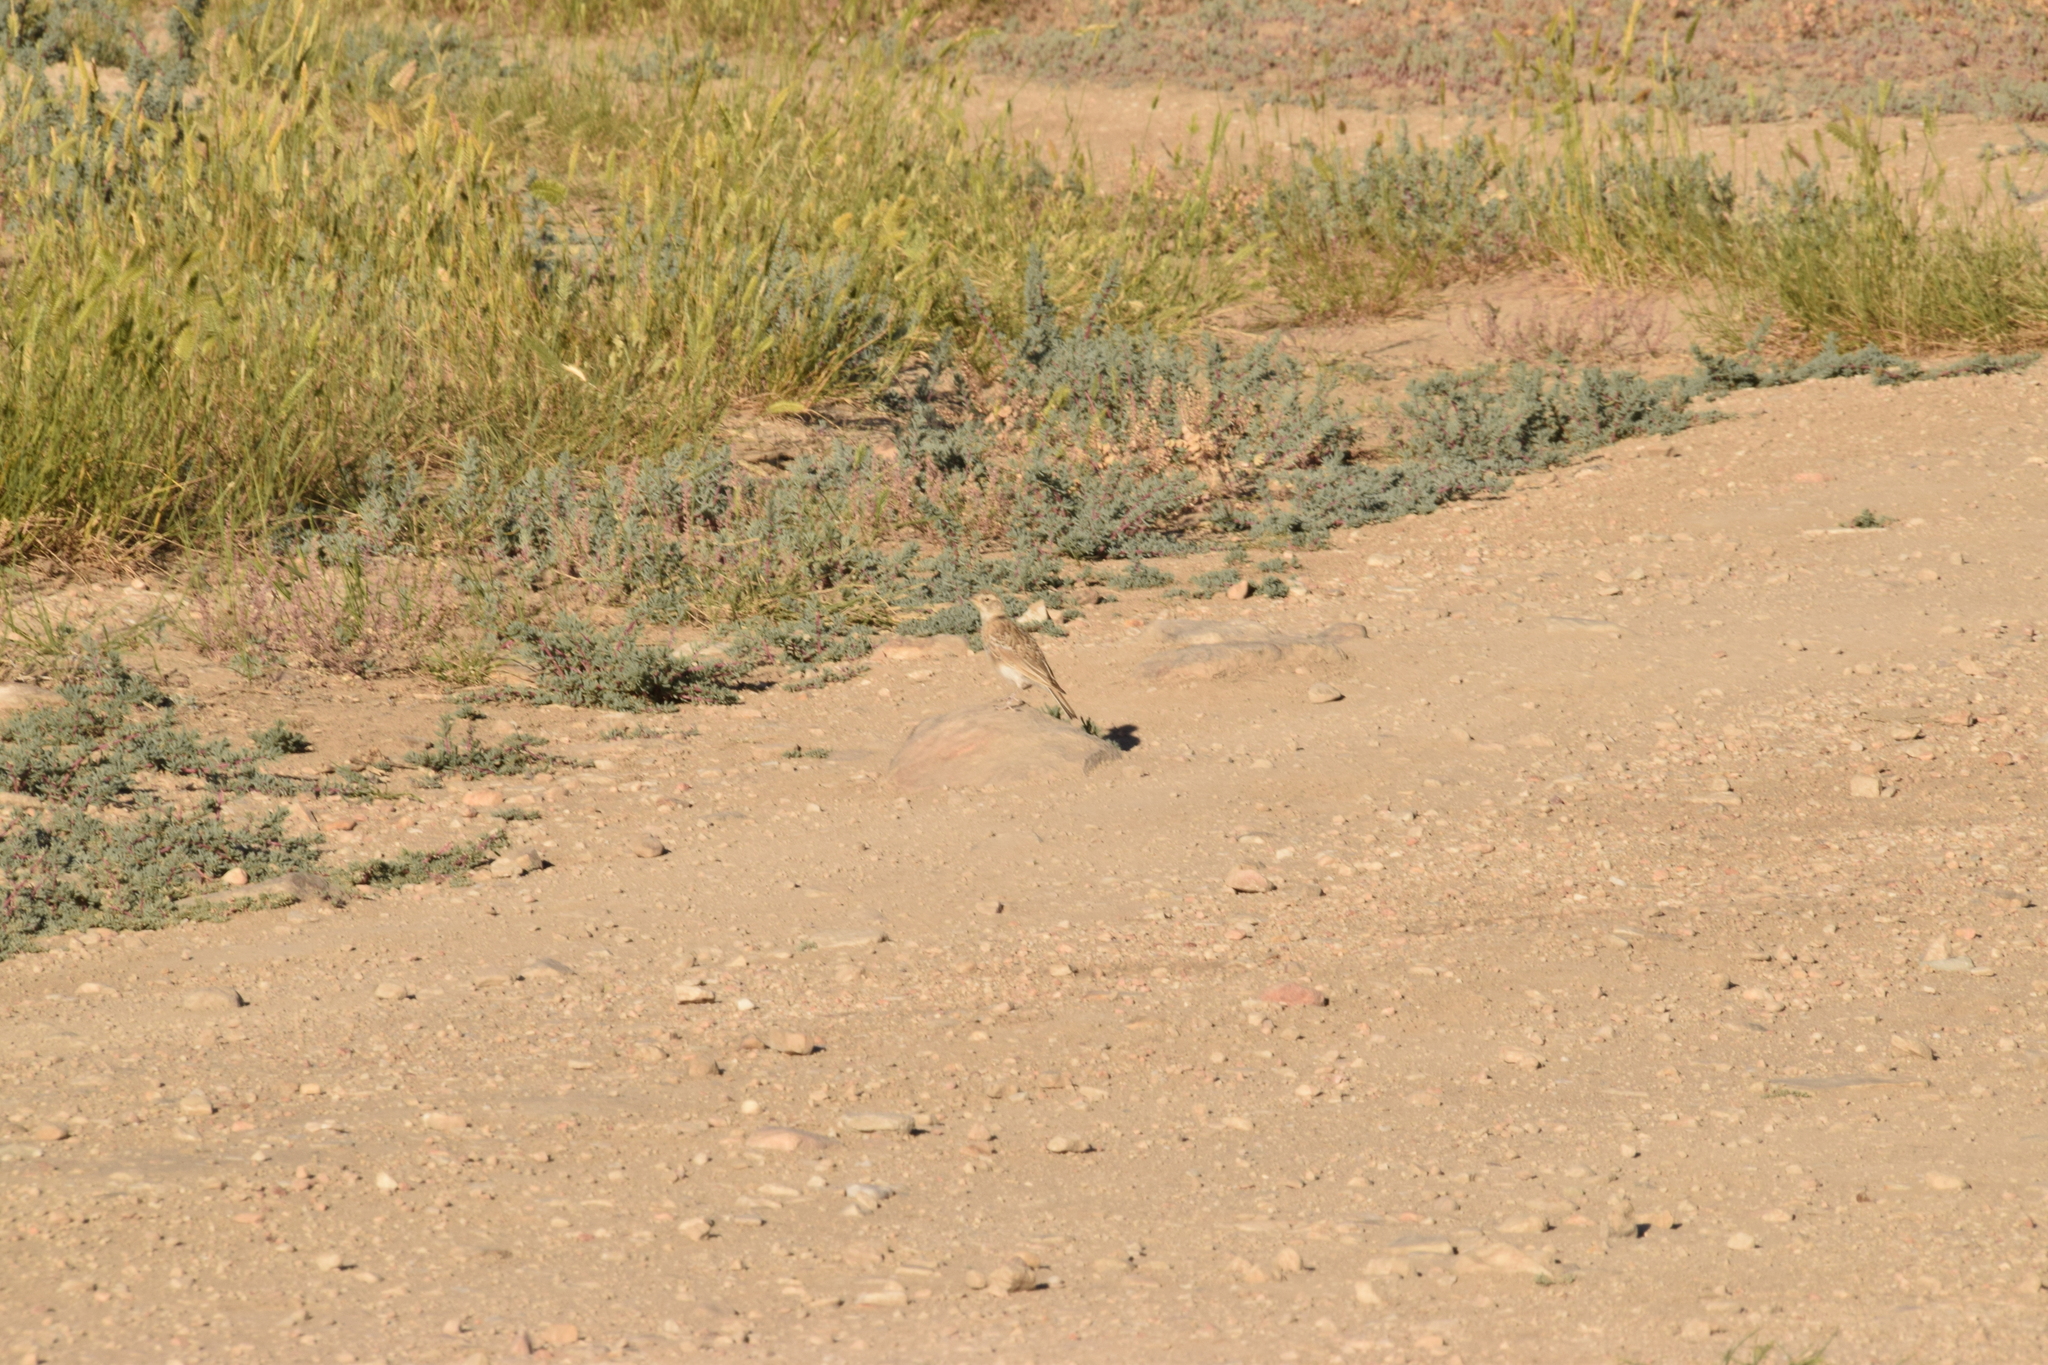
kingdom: Animalia
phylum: Chordata
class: Aves
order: Passeriformes
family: Alaudidae
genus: Eremophila
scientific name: Eremophila alpestris
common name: Horned lark
